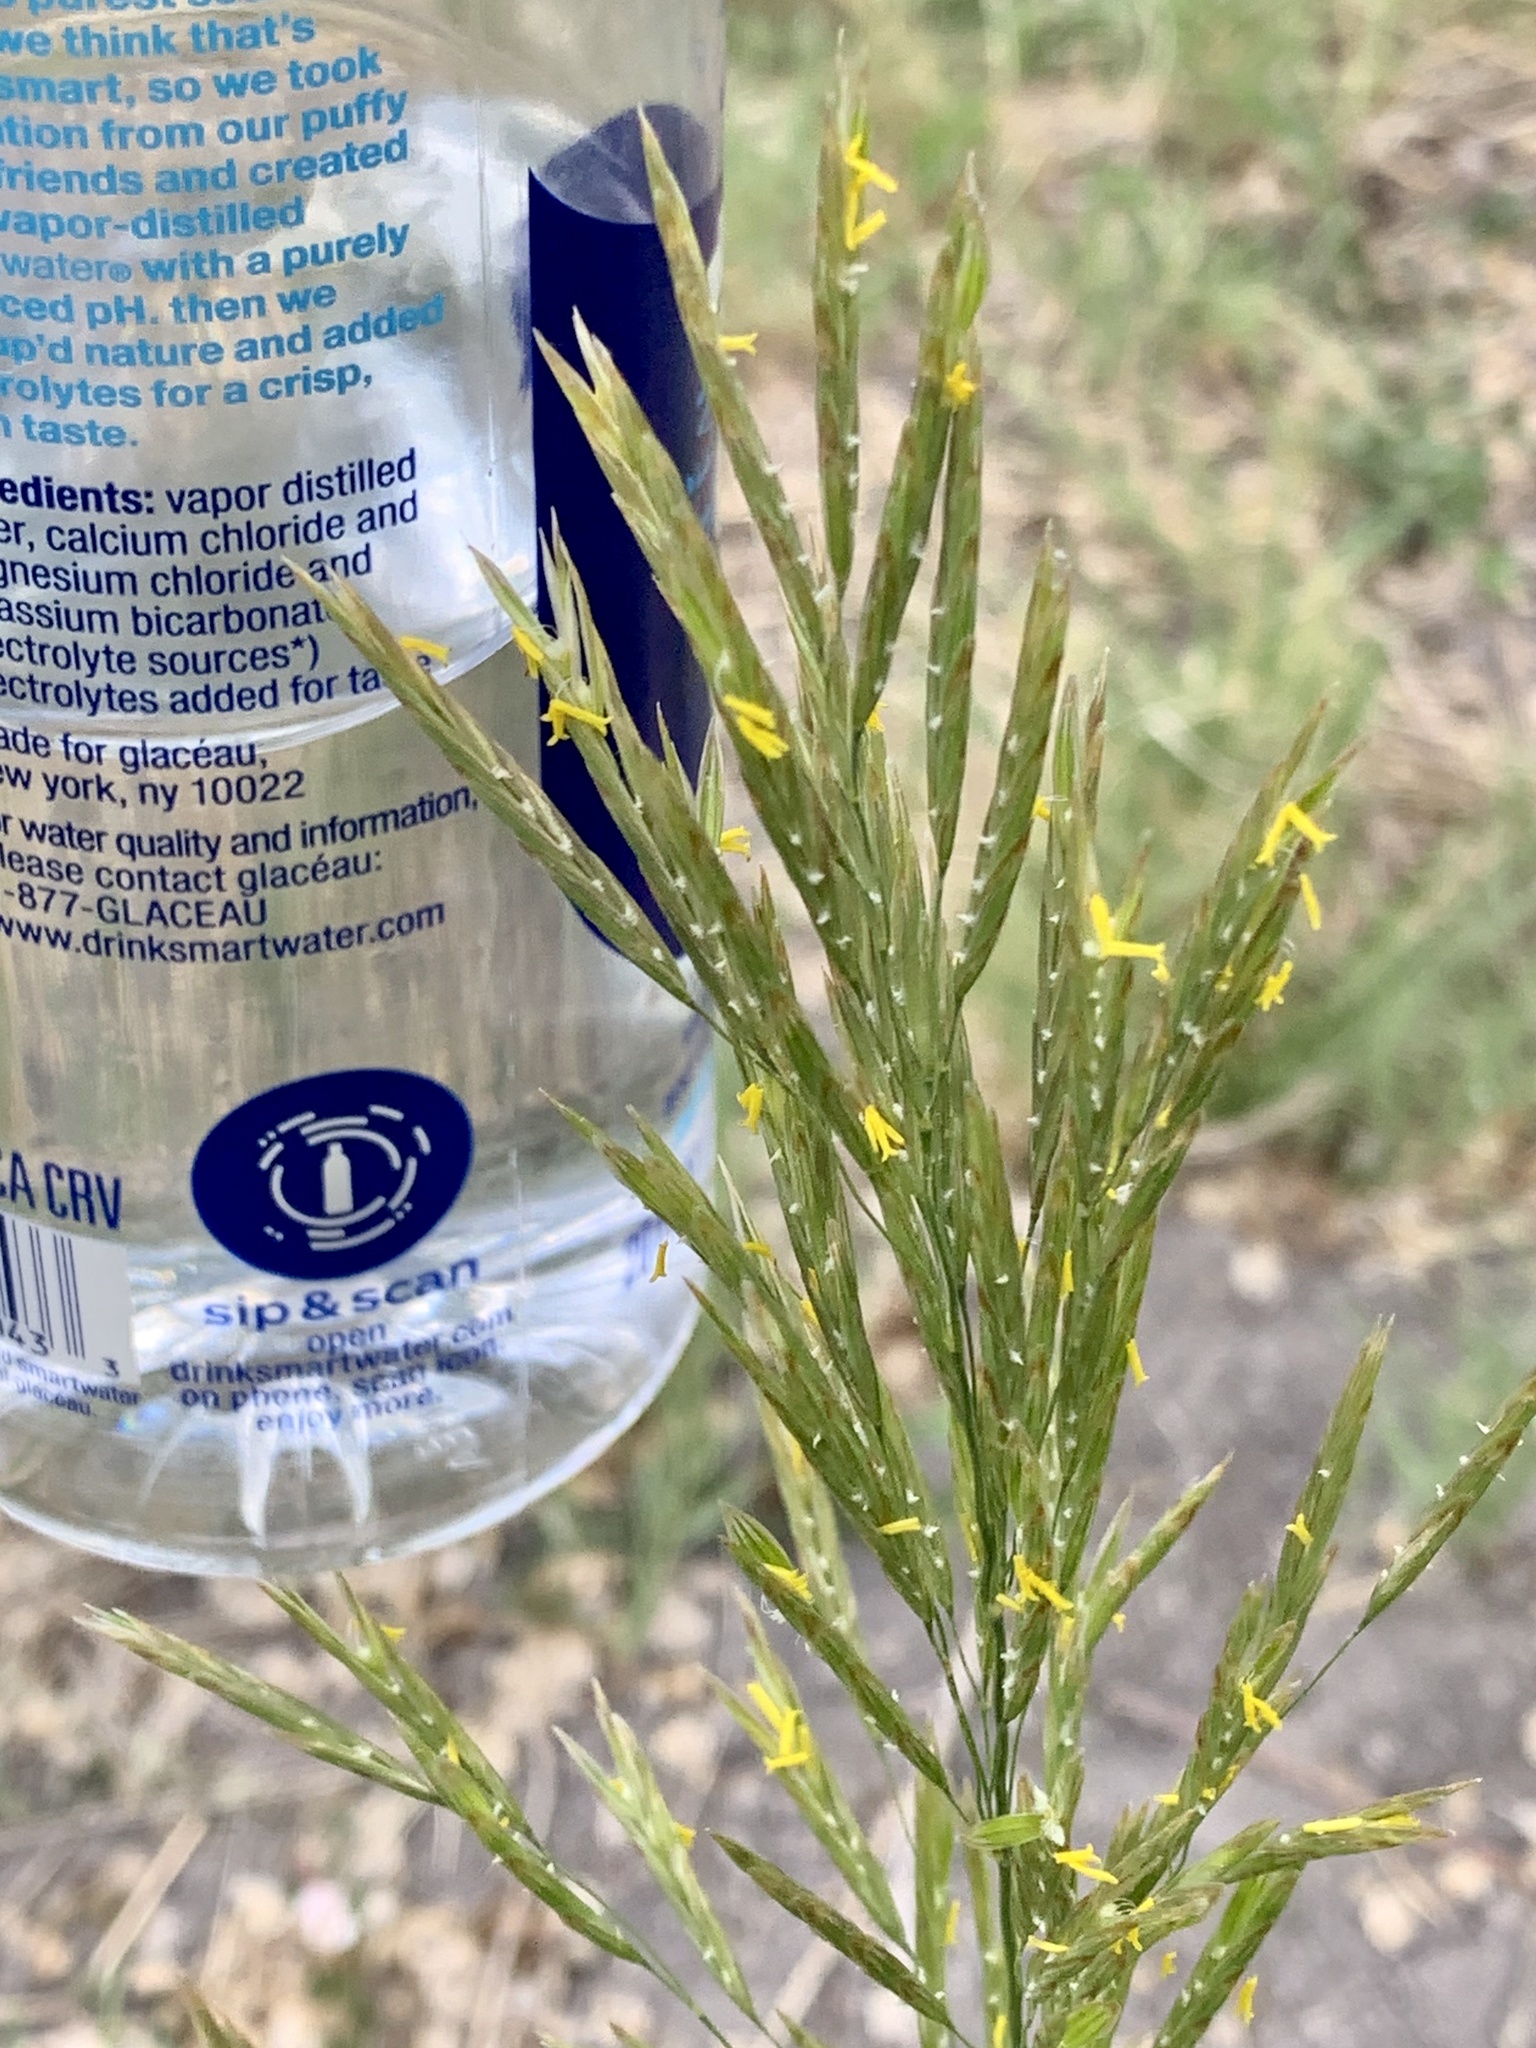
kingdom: Plantae
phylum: Tracheophyta
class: Liliopsida
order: Poales
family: Poaceae
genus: Bromus
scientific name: Bromus inermis
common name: Smooth brome
